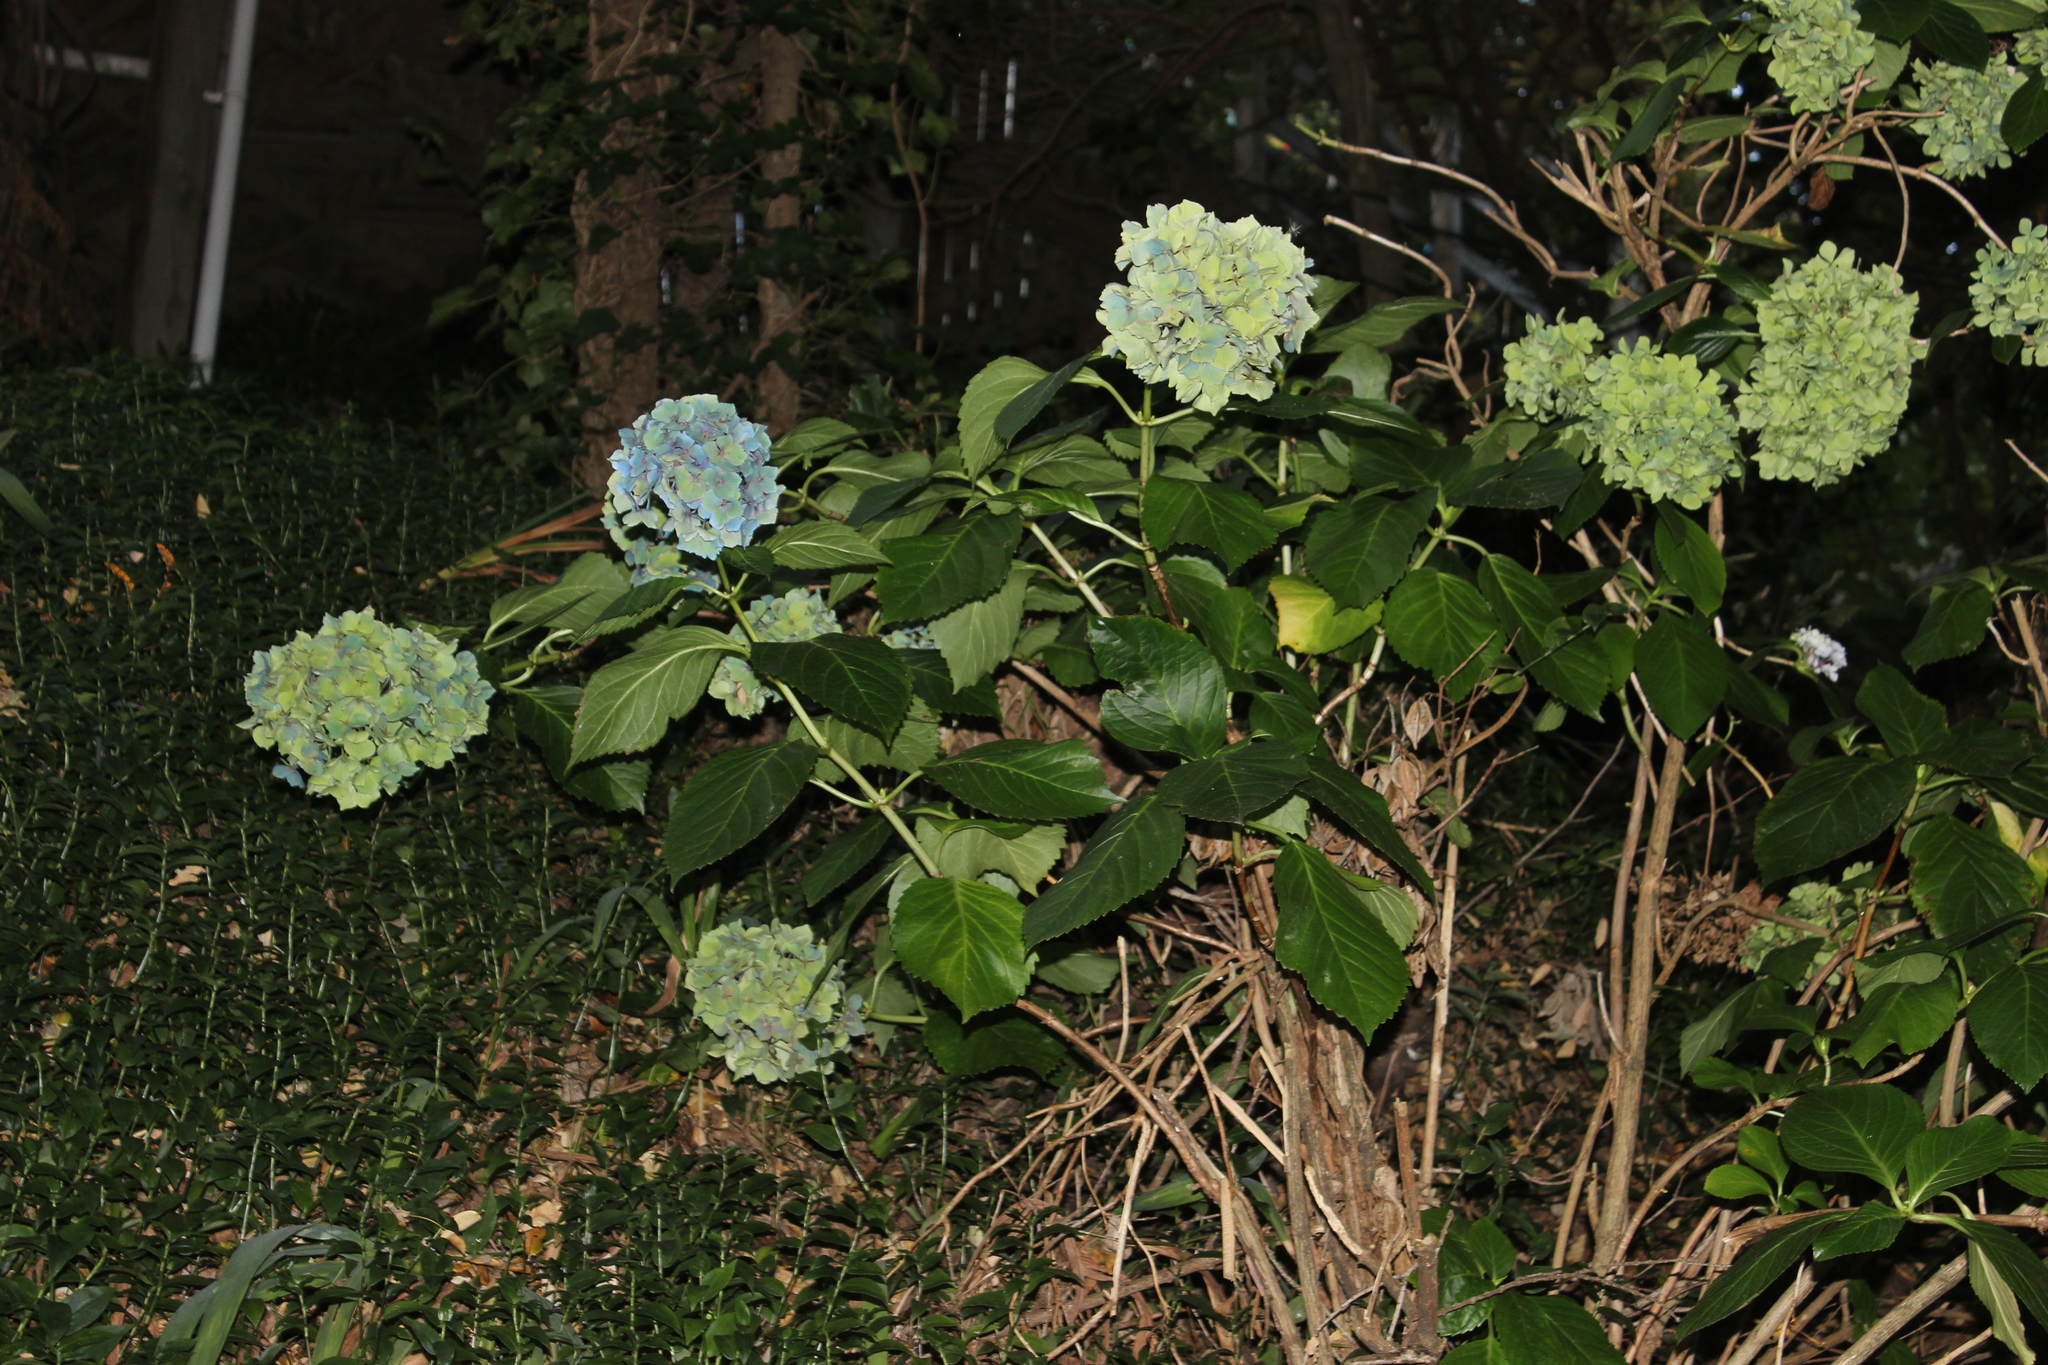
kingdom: Plantae
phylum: Tracheophyta
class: Magnoliopsida
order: Cornales
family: Hydrangeaceae
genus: Hydrangea
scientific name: Hydrangea macrophylla
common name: Hydrangea
